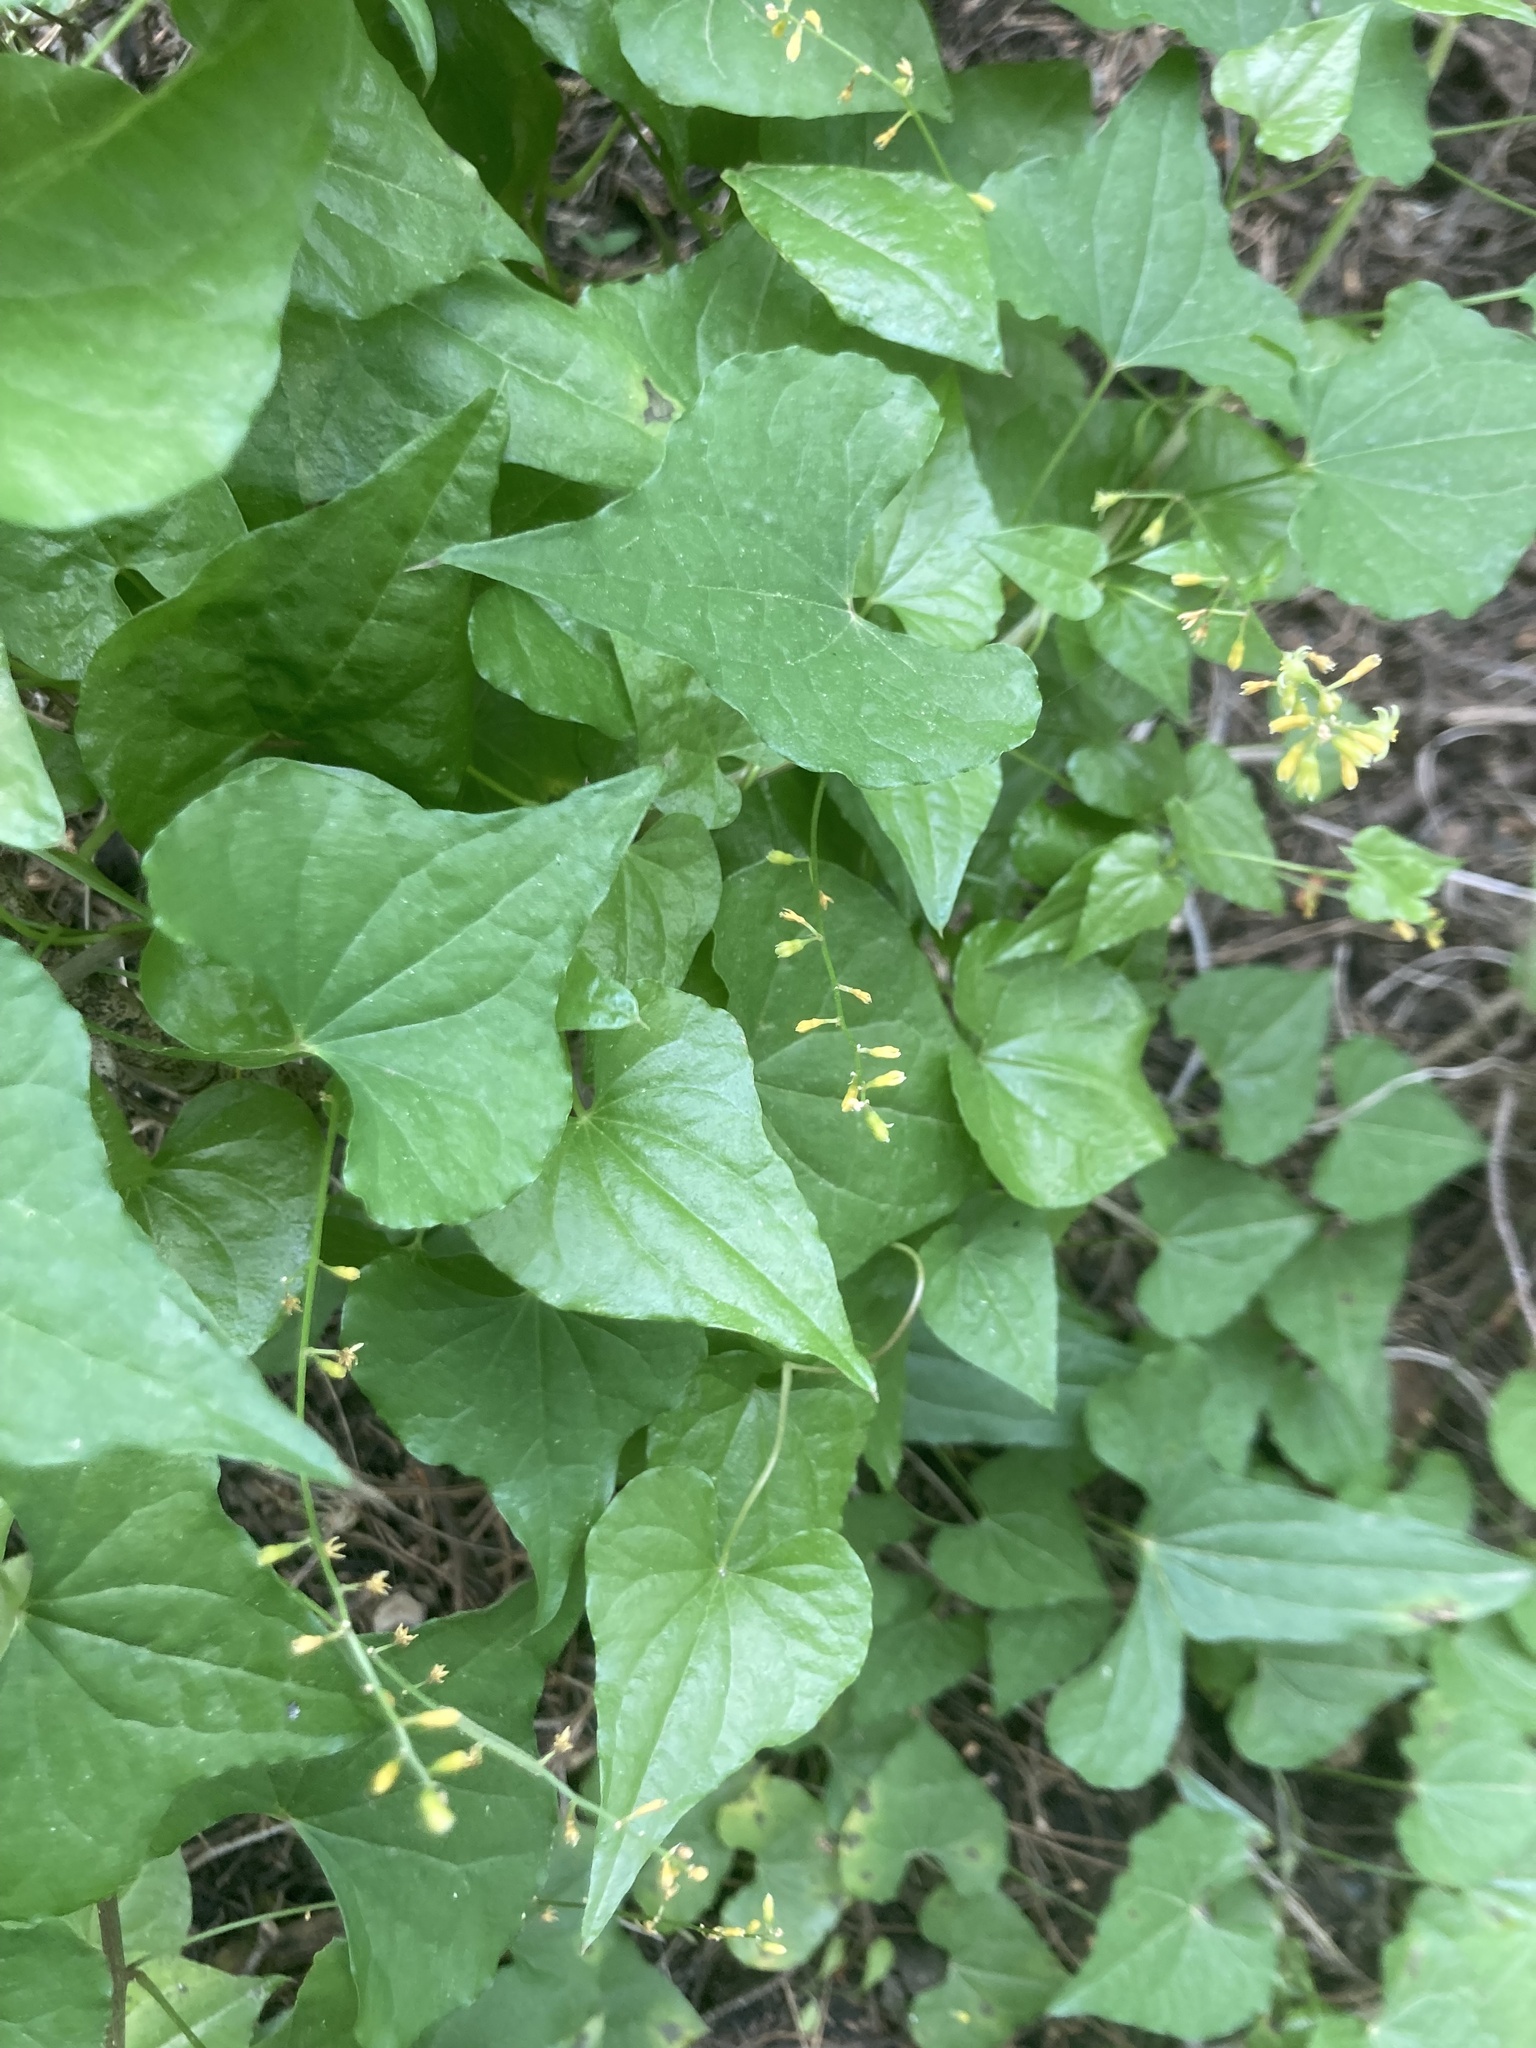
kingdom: Plantae
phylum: Tracheophyta
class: Liliopsida
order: Dioscoreales
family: Dioscoreaceae
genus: Dioscorea
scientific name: Dioscorea communis
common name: Black-bindweed
